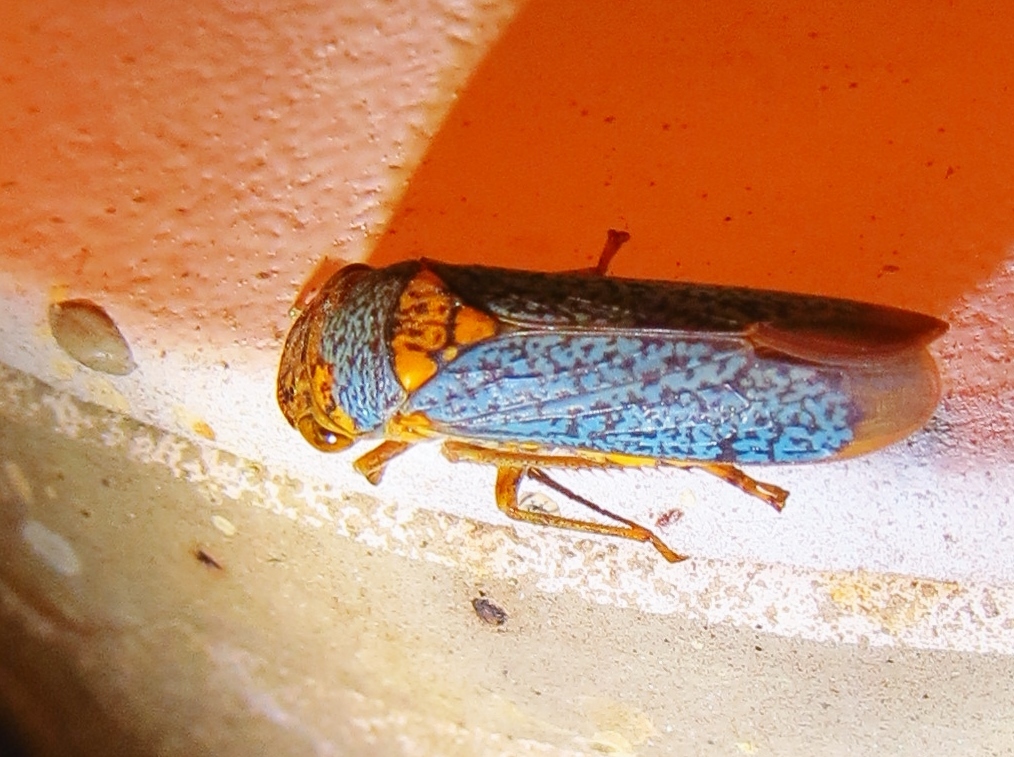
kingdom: Animalia
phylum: Arthropoda
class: Insecta
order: Hemiptera
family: Cicadellidae
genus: Oncometopia
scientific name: Oncometopia orbona
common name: Broad-headed sharpshooter
